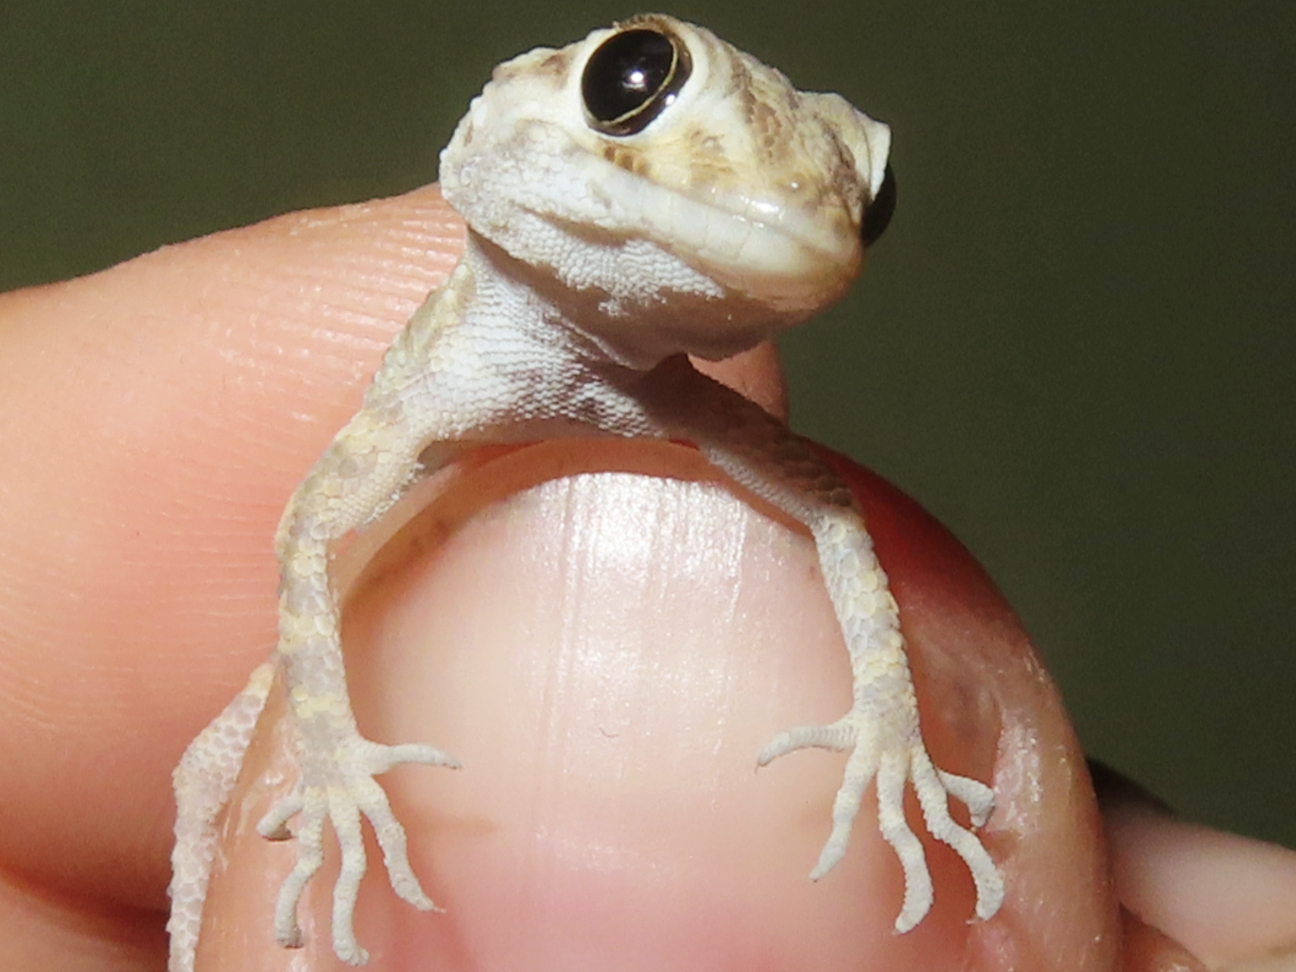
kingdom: Animalia
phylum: Chordata
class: Squamata
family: Gekkonidae
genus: Tenuidactylus
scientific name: Tenuidactylus caspius
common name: Caspian bent-toed gecko
